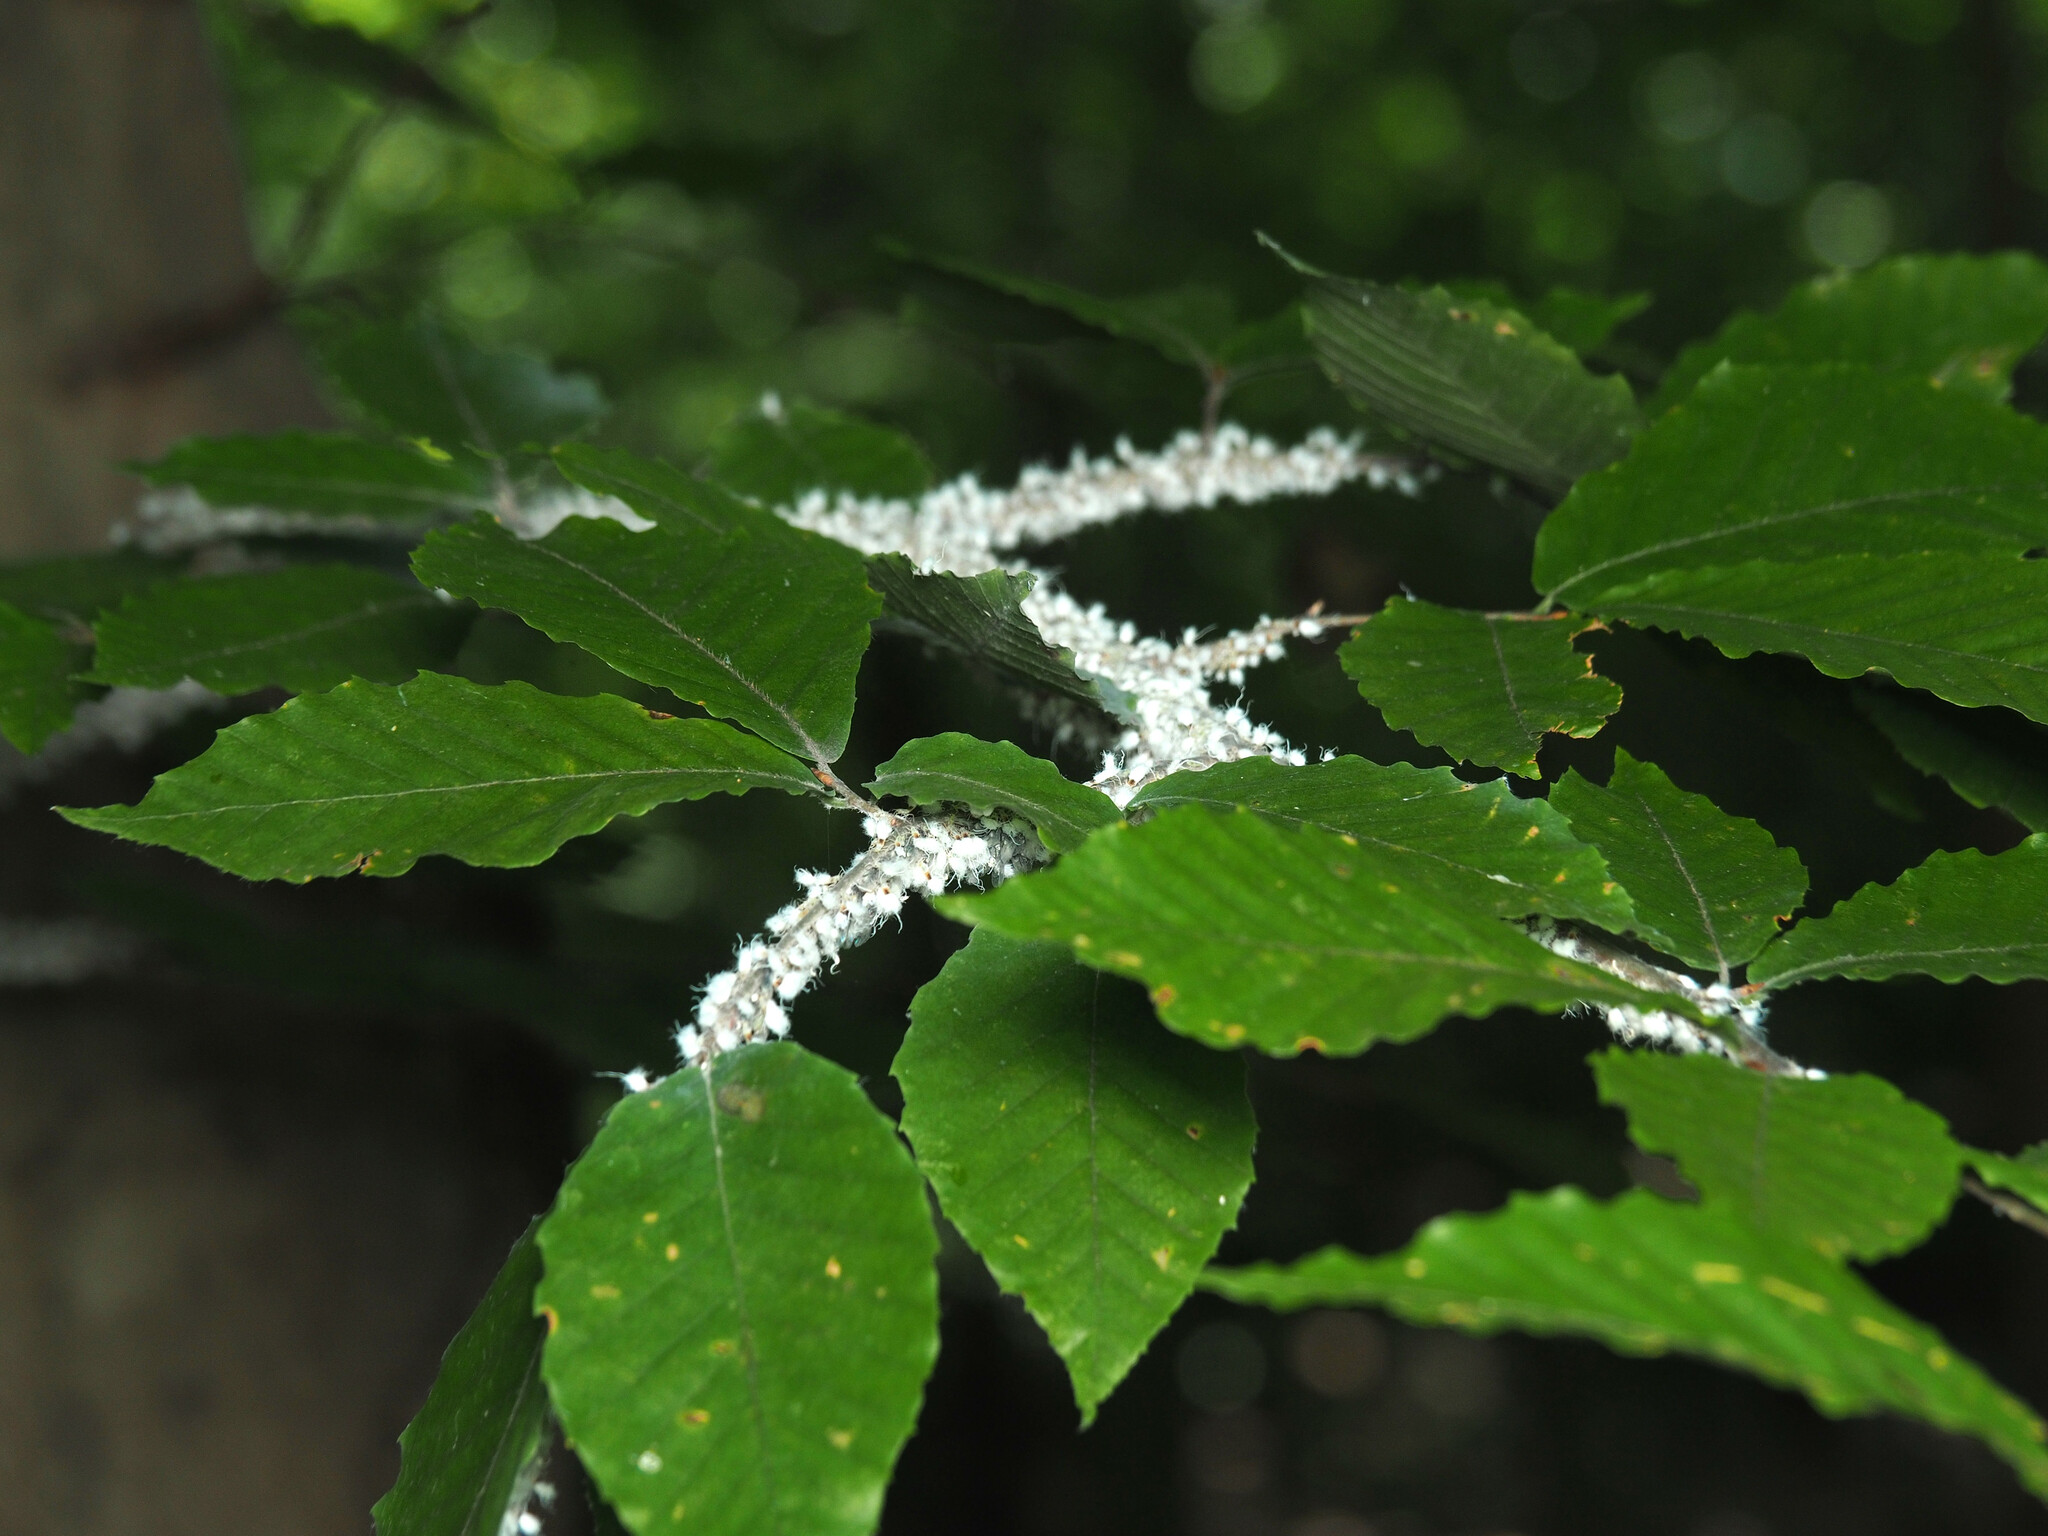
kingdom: Animalia
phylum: Arthropoda
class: Insecta
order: Hemiptera
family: Aphididae
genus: Grylloprociphilus
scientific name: Grylloprociphilus imbricator
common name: Beech blight aphid
